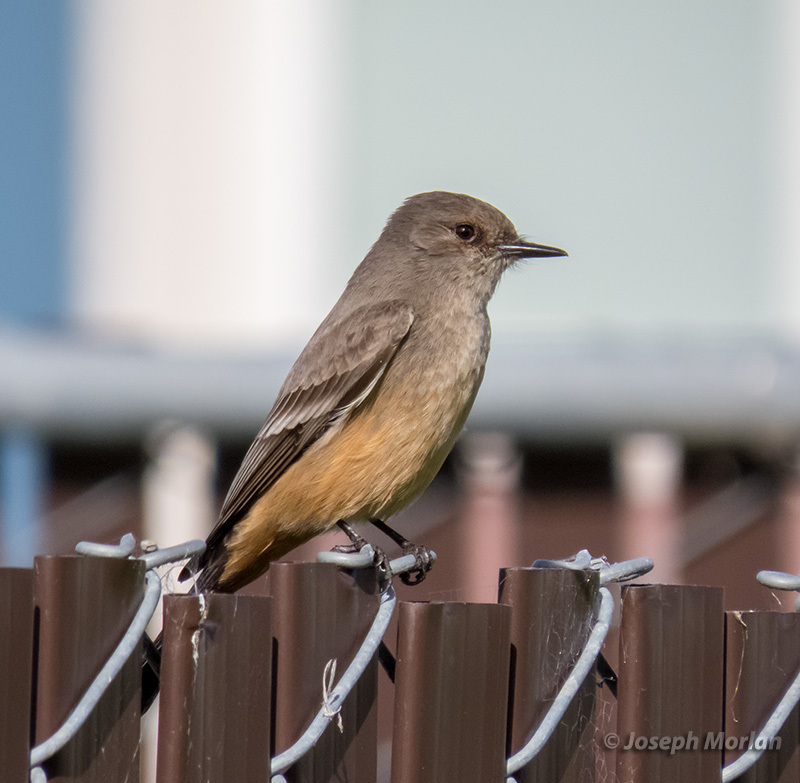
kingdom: Animalia
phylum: Chordata
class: Aves
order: Passeriformes
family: Tyrannidae
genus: Sayornis
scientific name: Sayornis saya
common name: Say's phoebe
